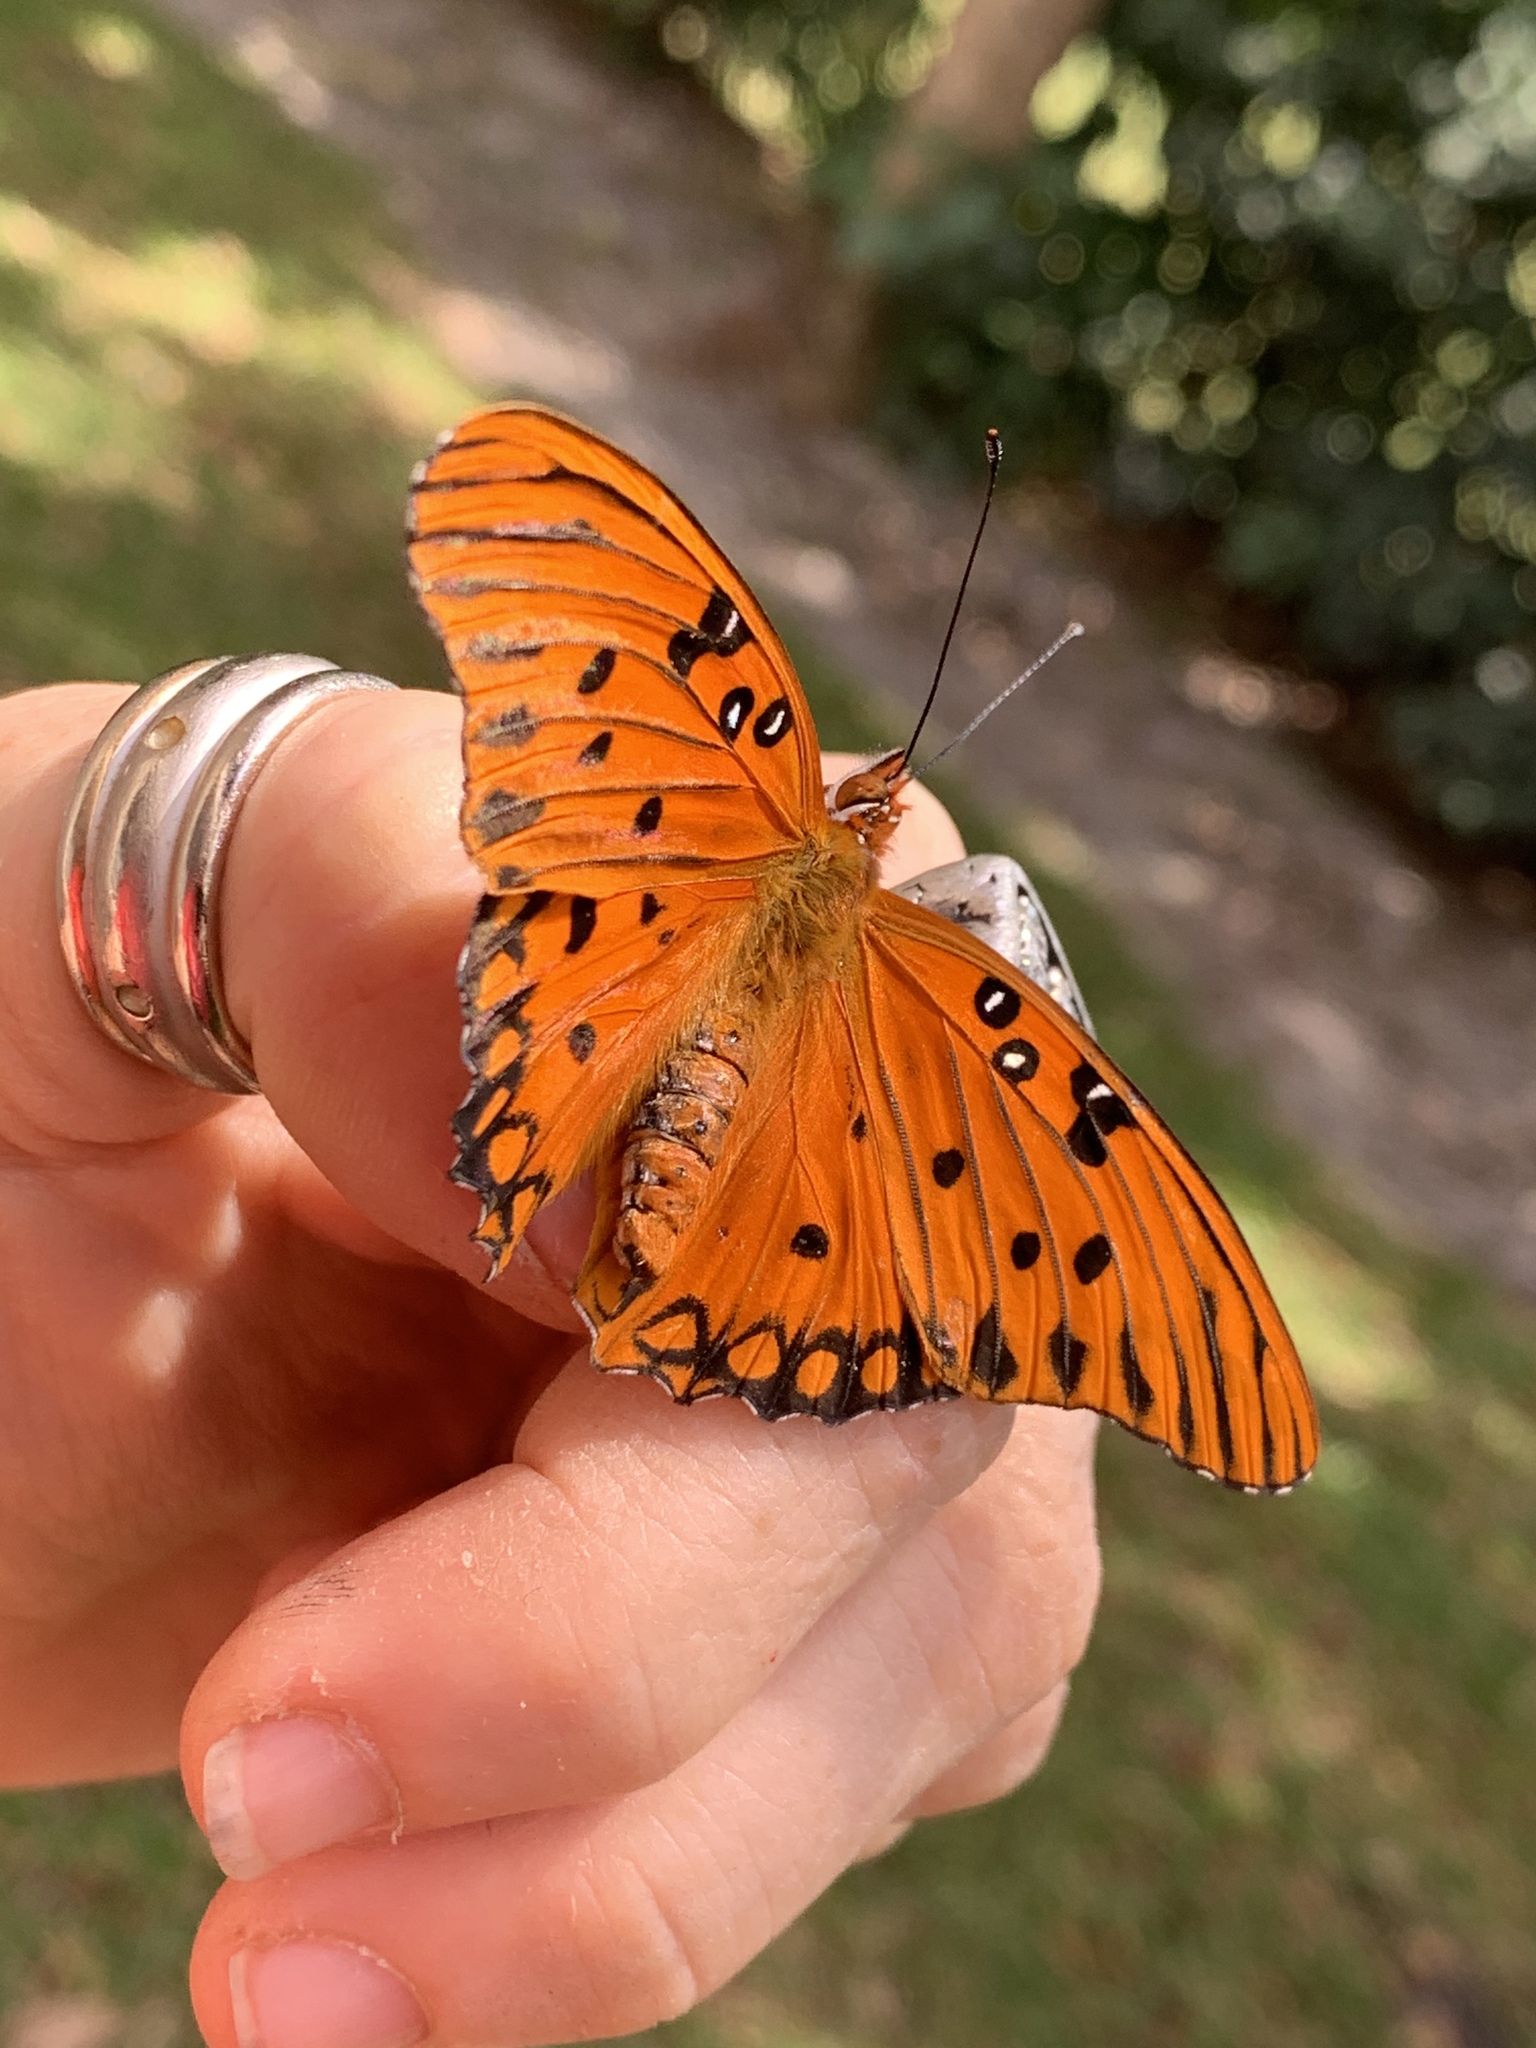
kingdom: Animalia
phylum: Arthropoda
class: Insecta
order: Lepidoptera
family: Nymphalidae
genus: Dione
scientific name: Dione vanillae
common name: Gulf fritillary
